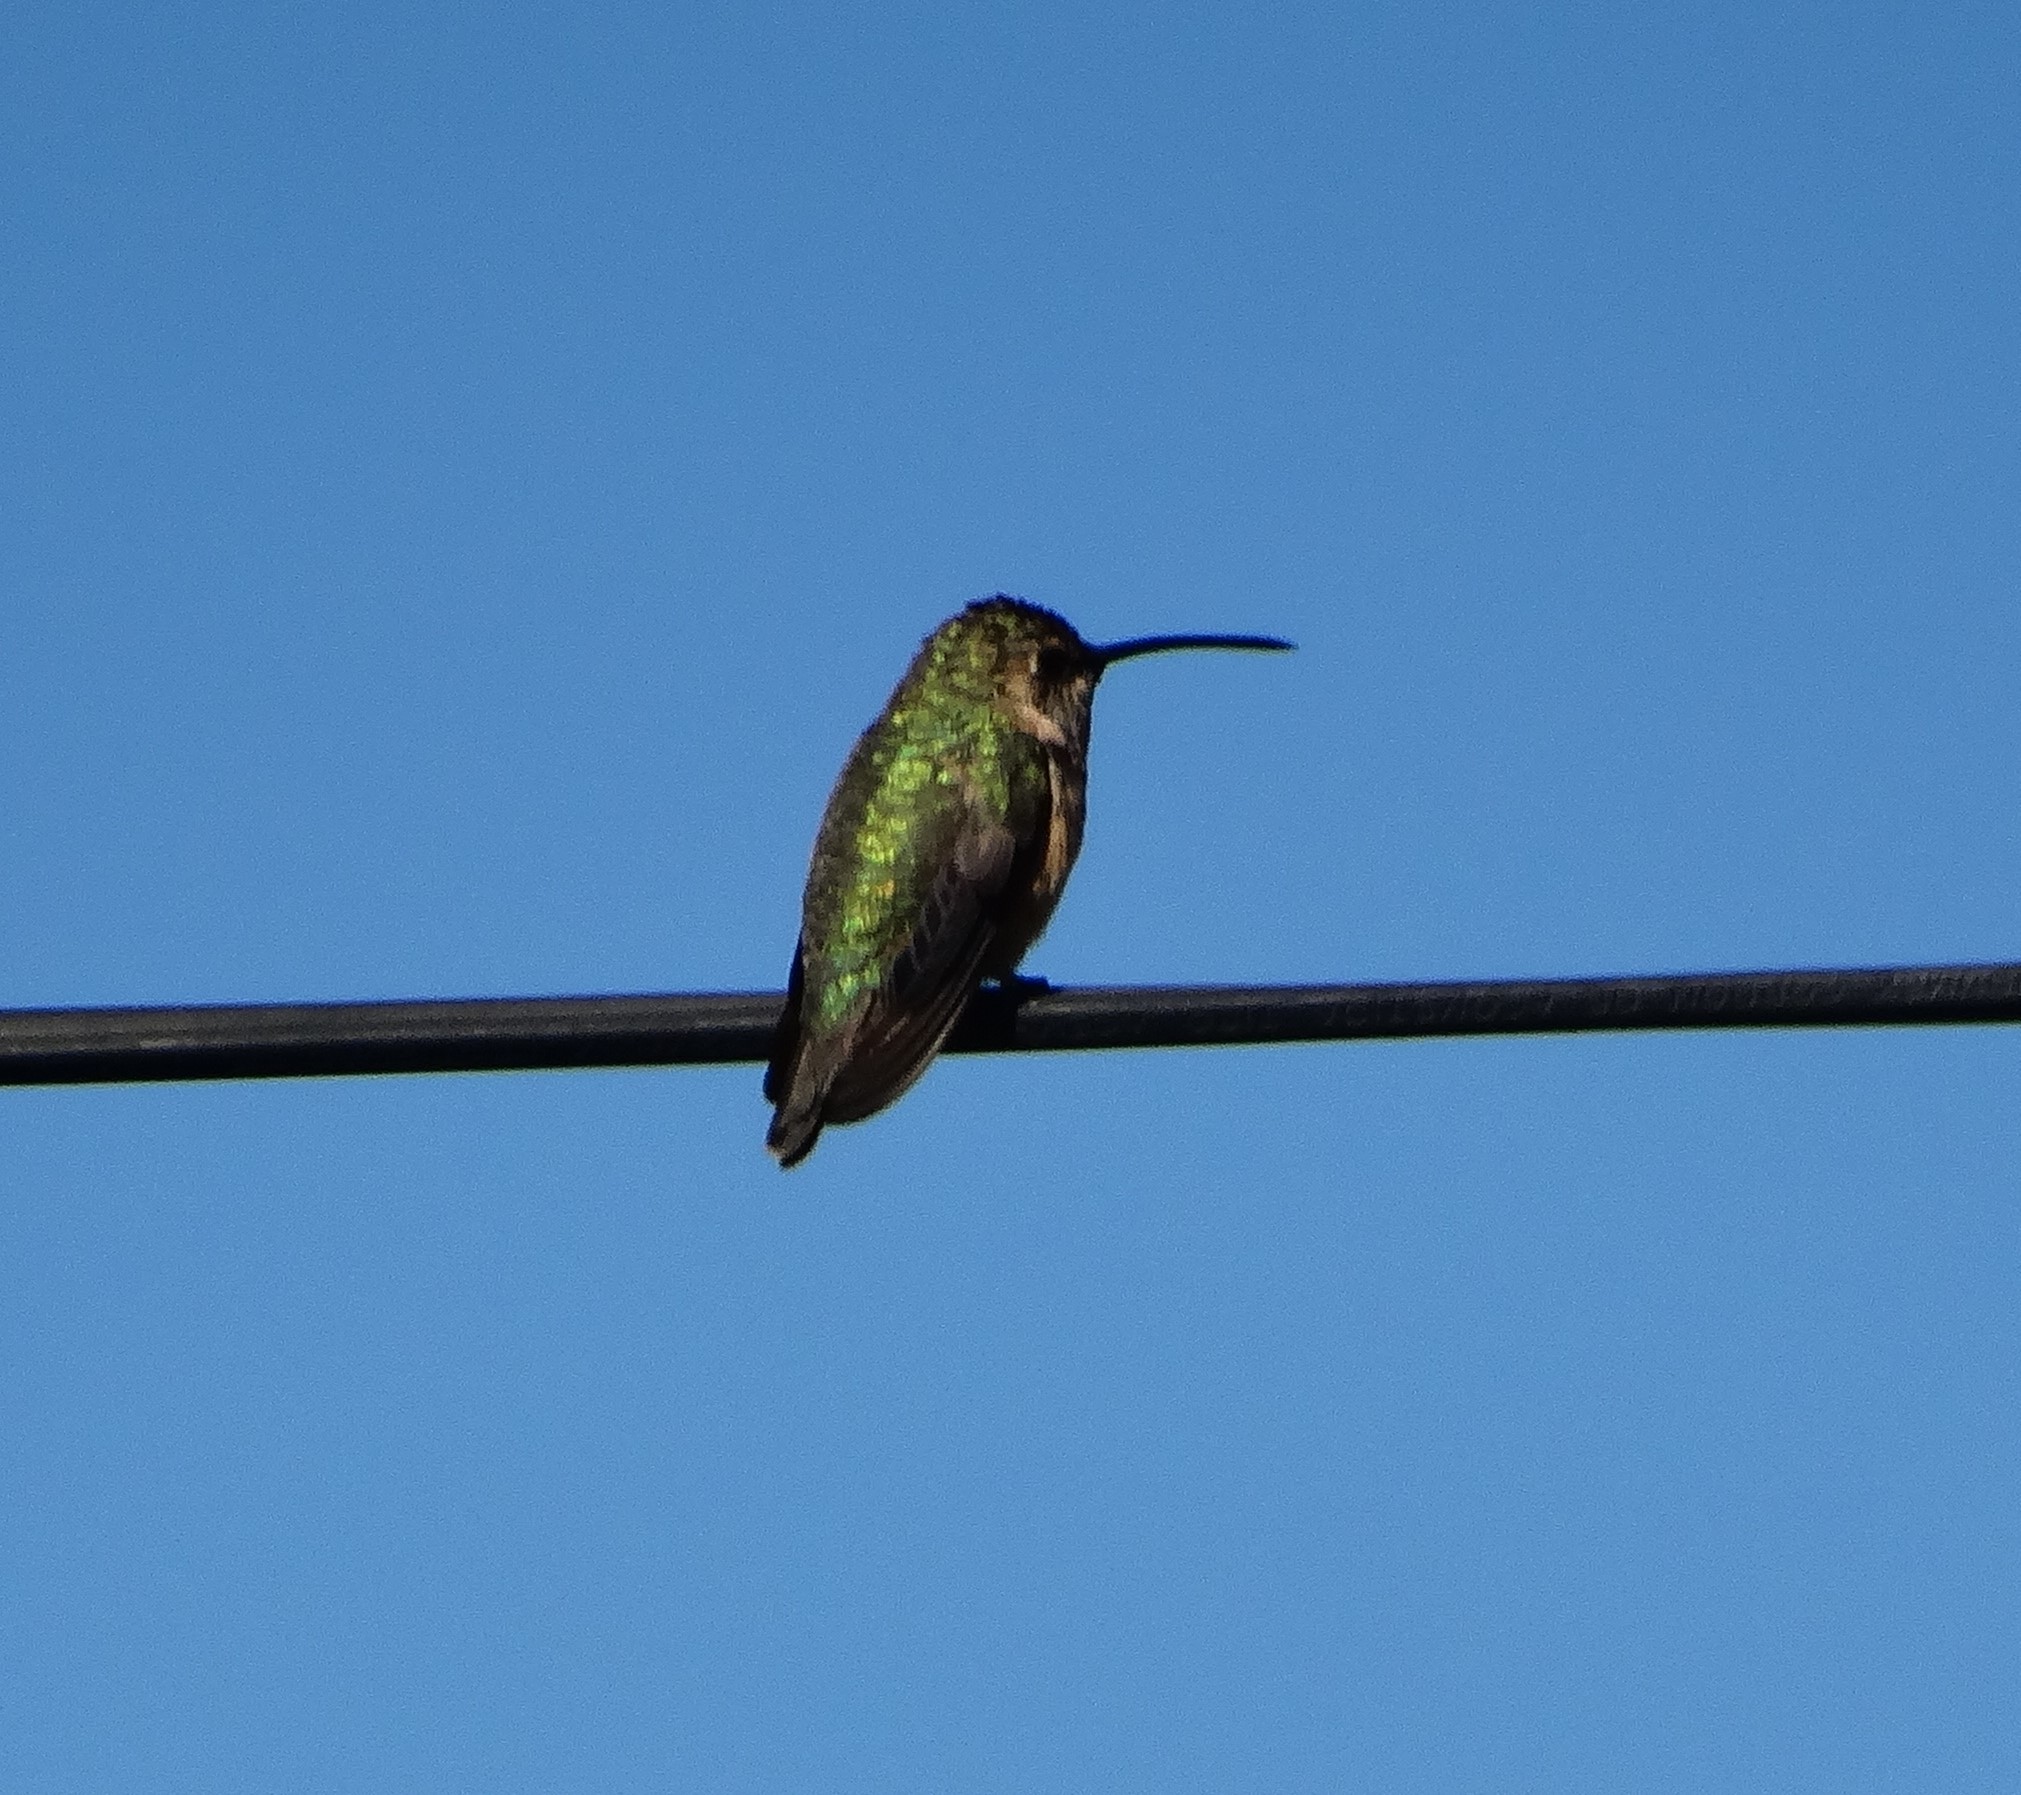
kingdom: Animalia
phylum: Chordata
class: Aves
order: Apodiformes
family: Trochilidae
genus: Calothorax
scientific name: Calothorax lucifer
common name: Lucifer sheartail
